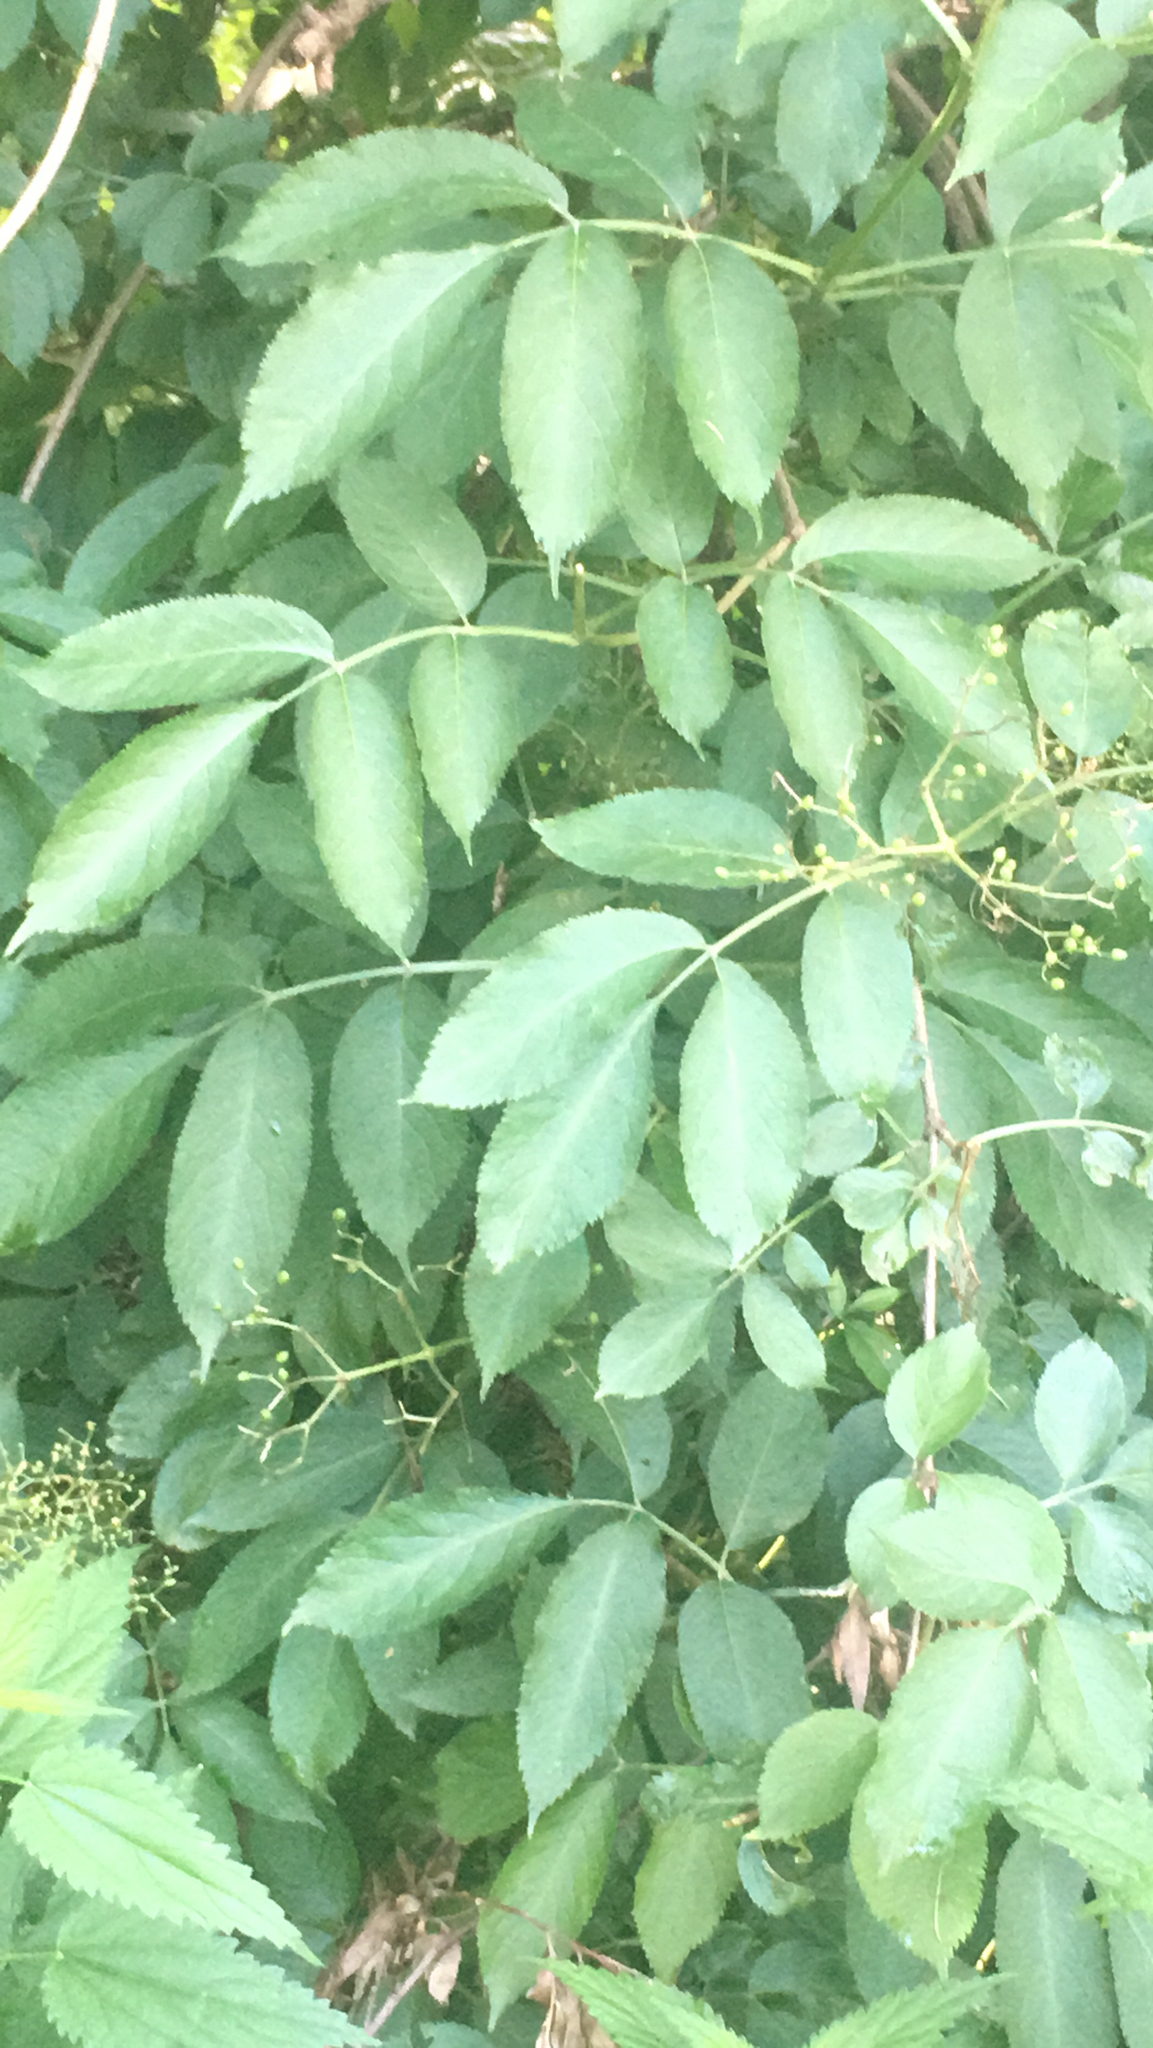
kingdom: Plantae
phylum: Tracheophyta
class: Magnoliopsida
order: Dipsacales
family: Viburnaceae
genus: Sambucus
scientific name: Sambucus nigra
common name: Elder
